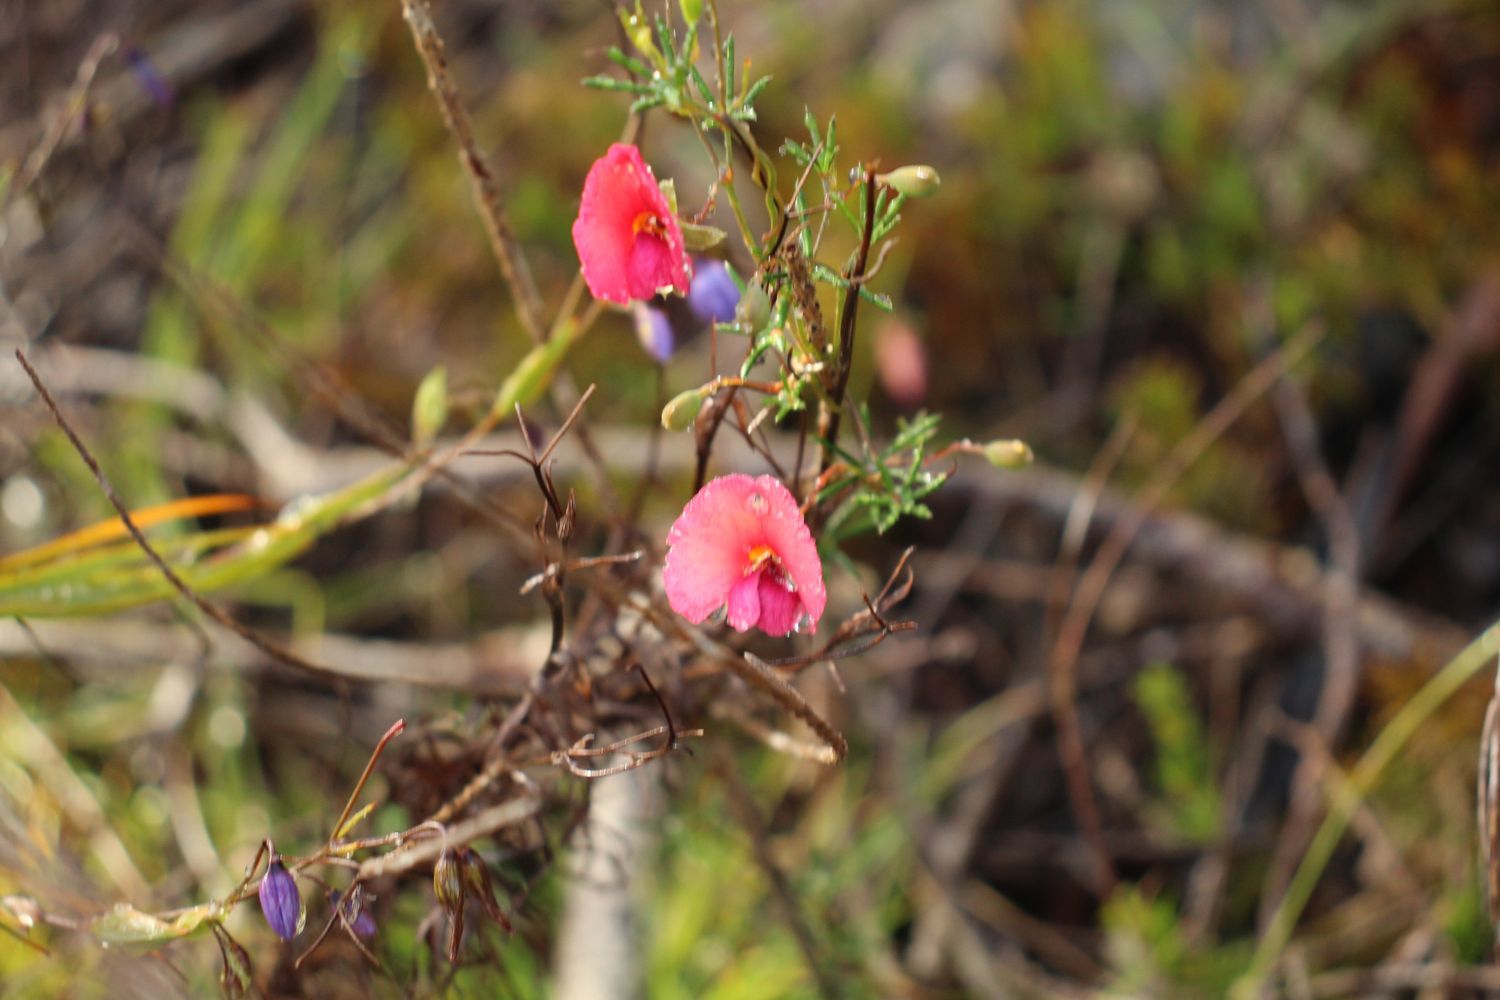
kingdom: Plantae
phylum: Tracheophyta
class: Magnoliopsida
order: Fabales
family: Fabaceae
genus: Gompholobium
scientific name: Gompholobium polymorphum
